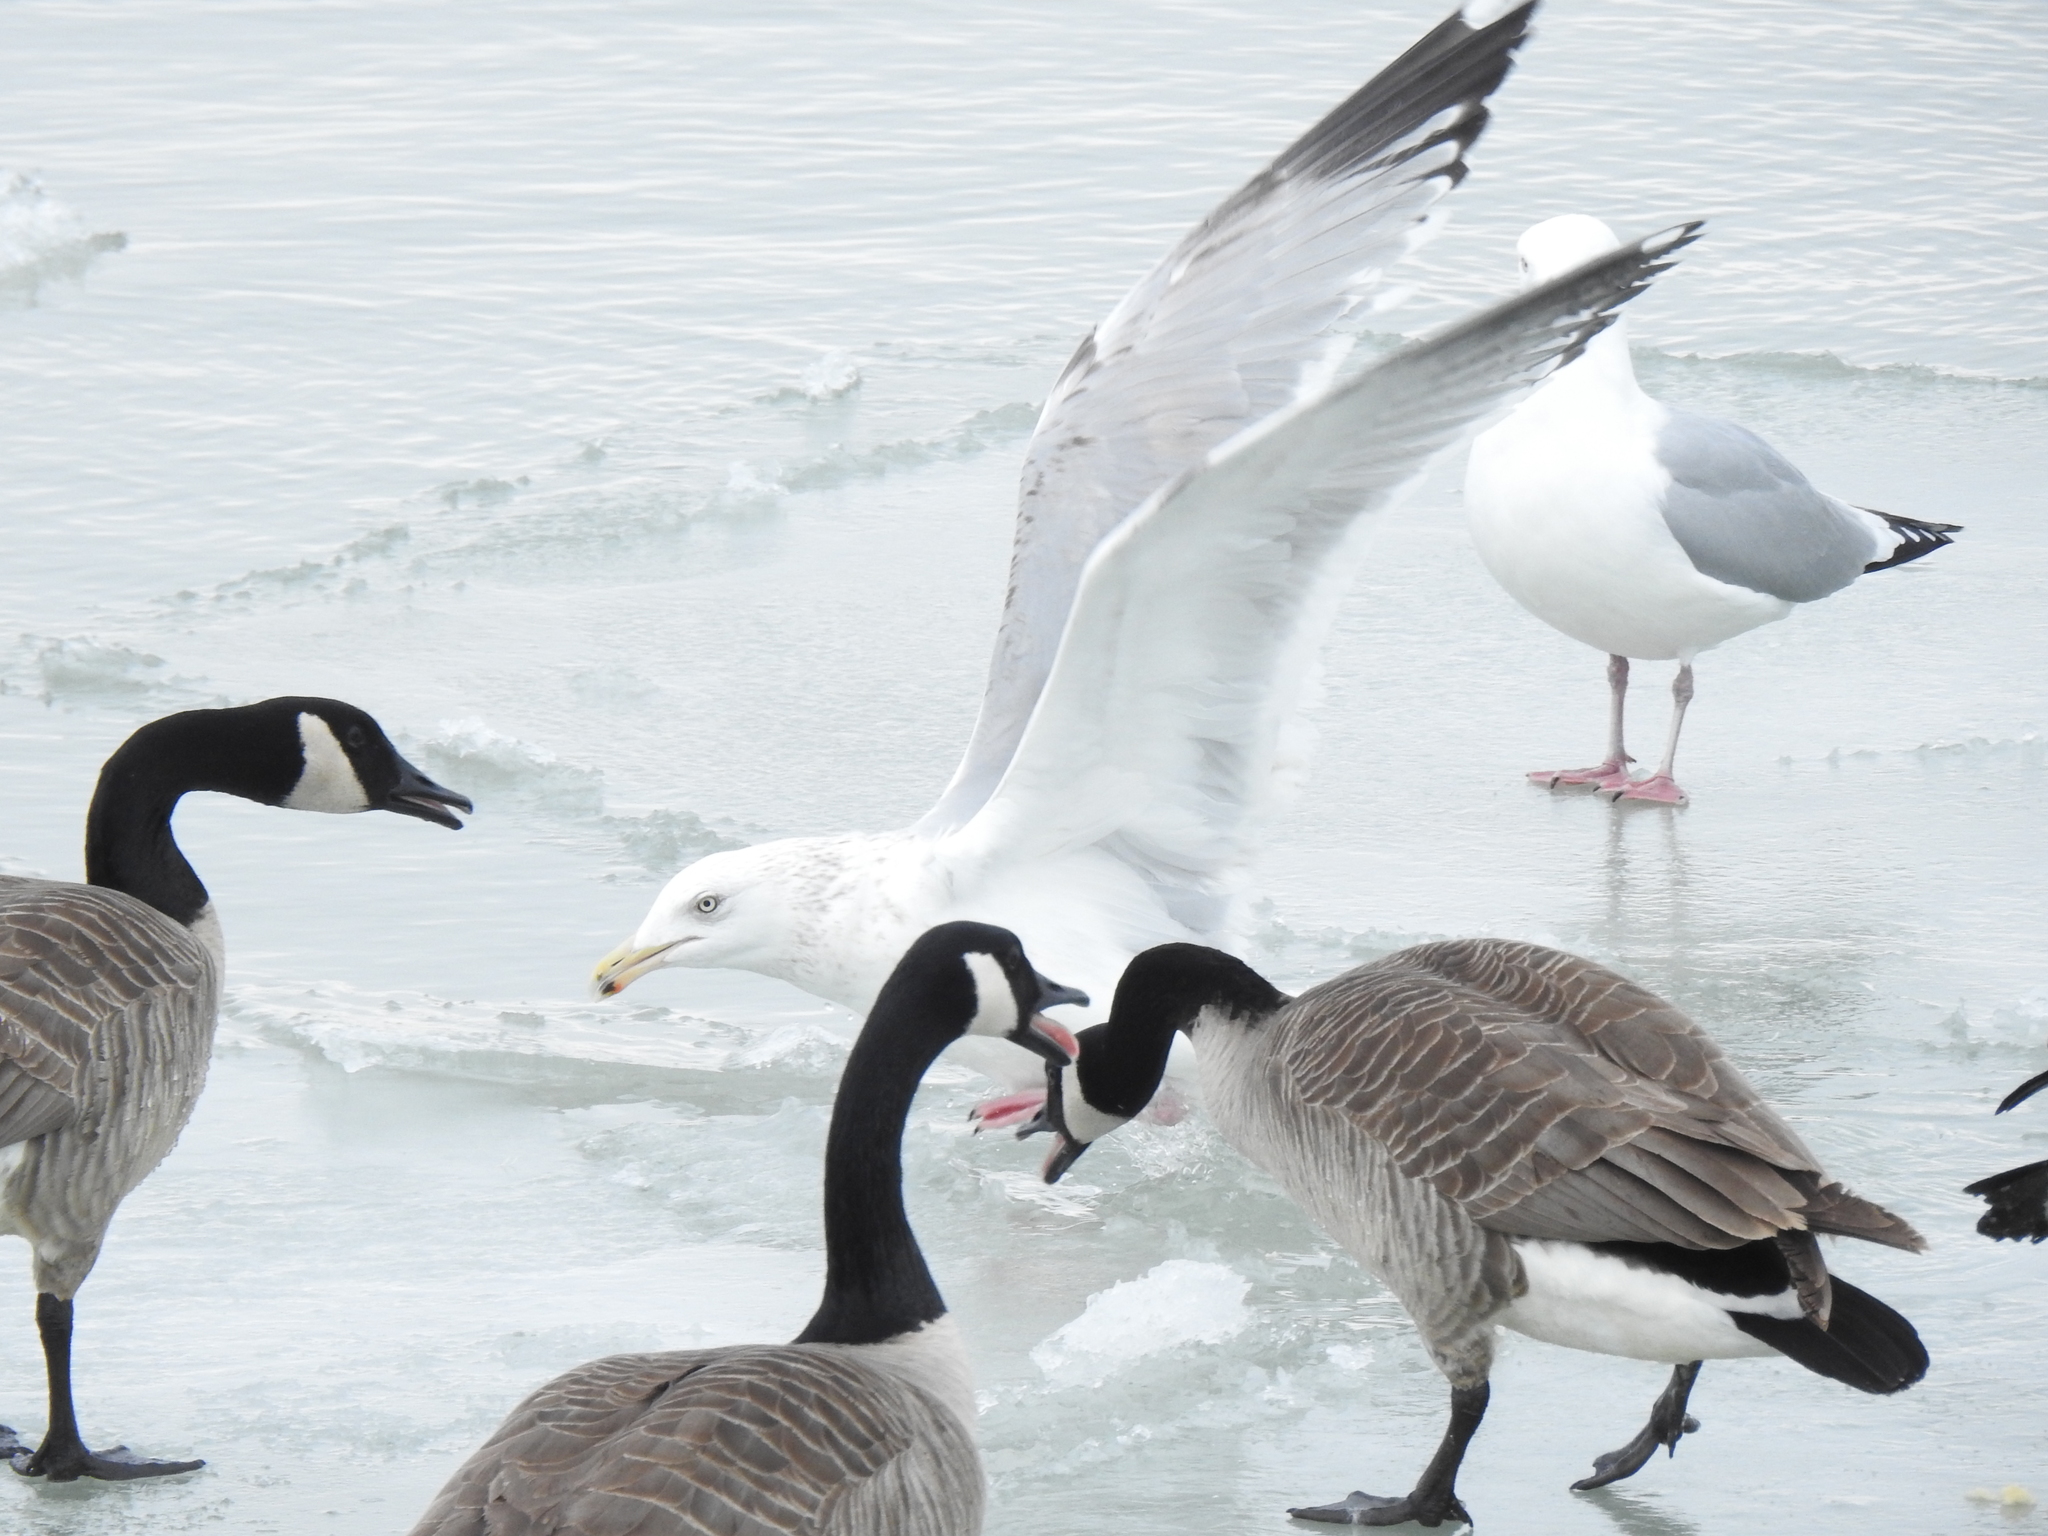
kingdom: Animalia
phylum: Chordata
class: Aves
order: Charadriiformes
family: Laridae
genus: Larus
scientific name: Larus argentatus
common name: Herring gull
